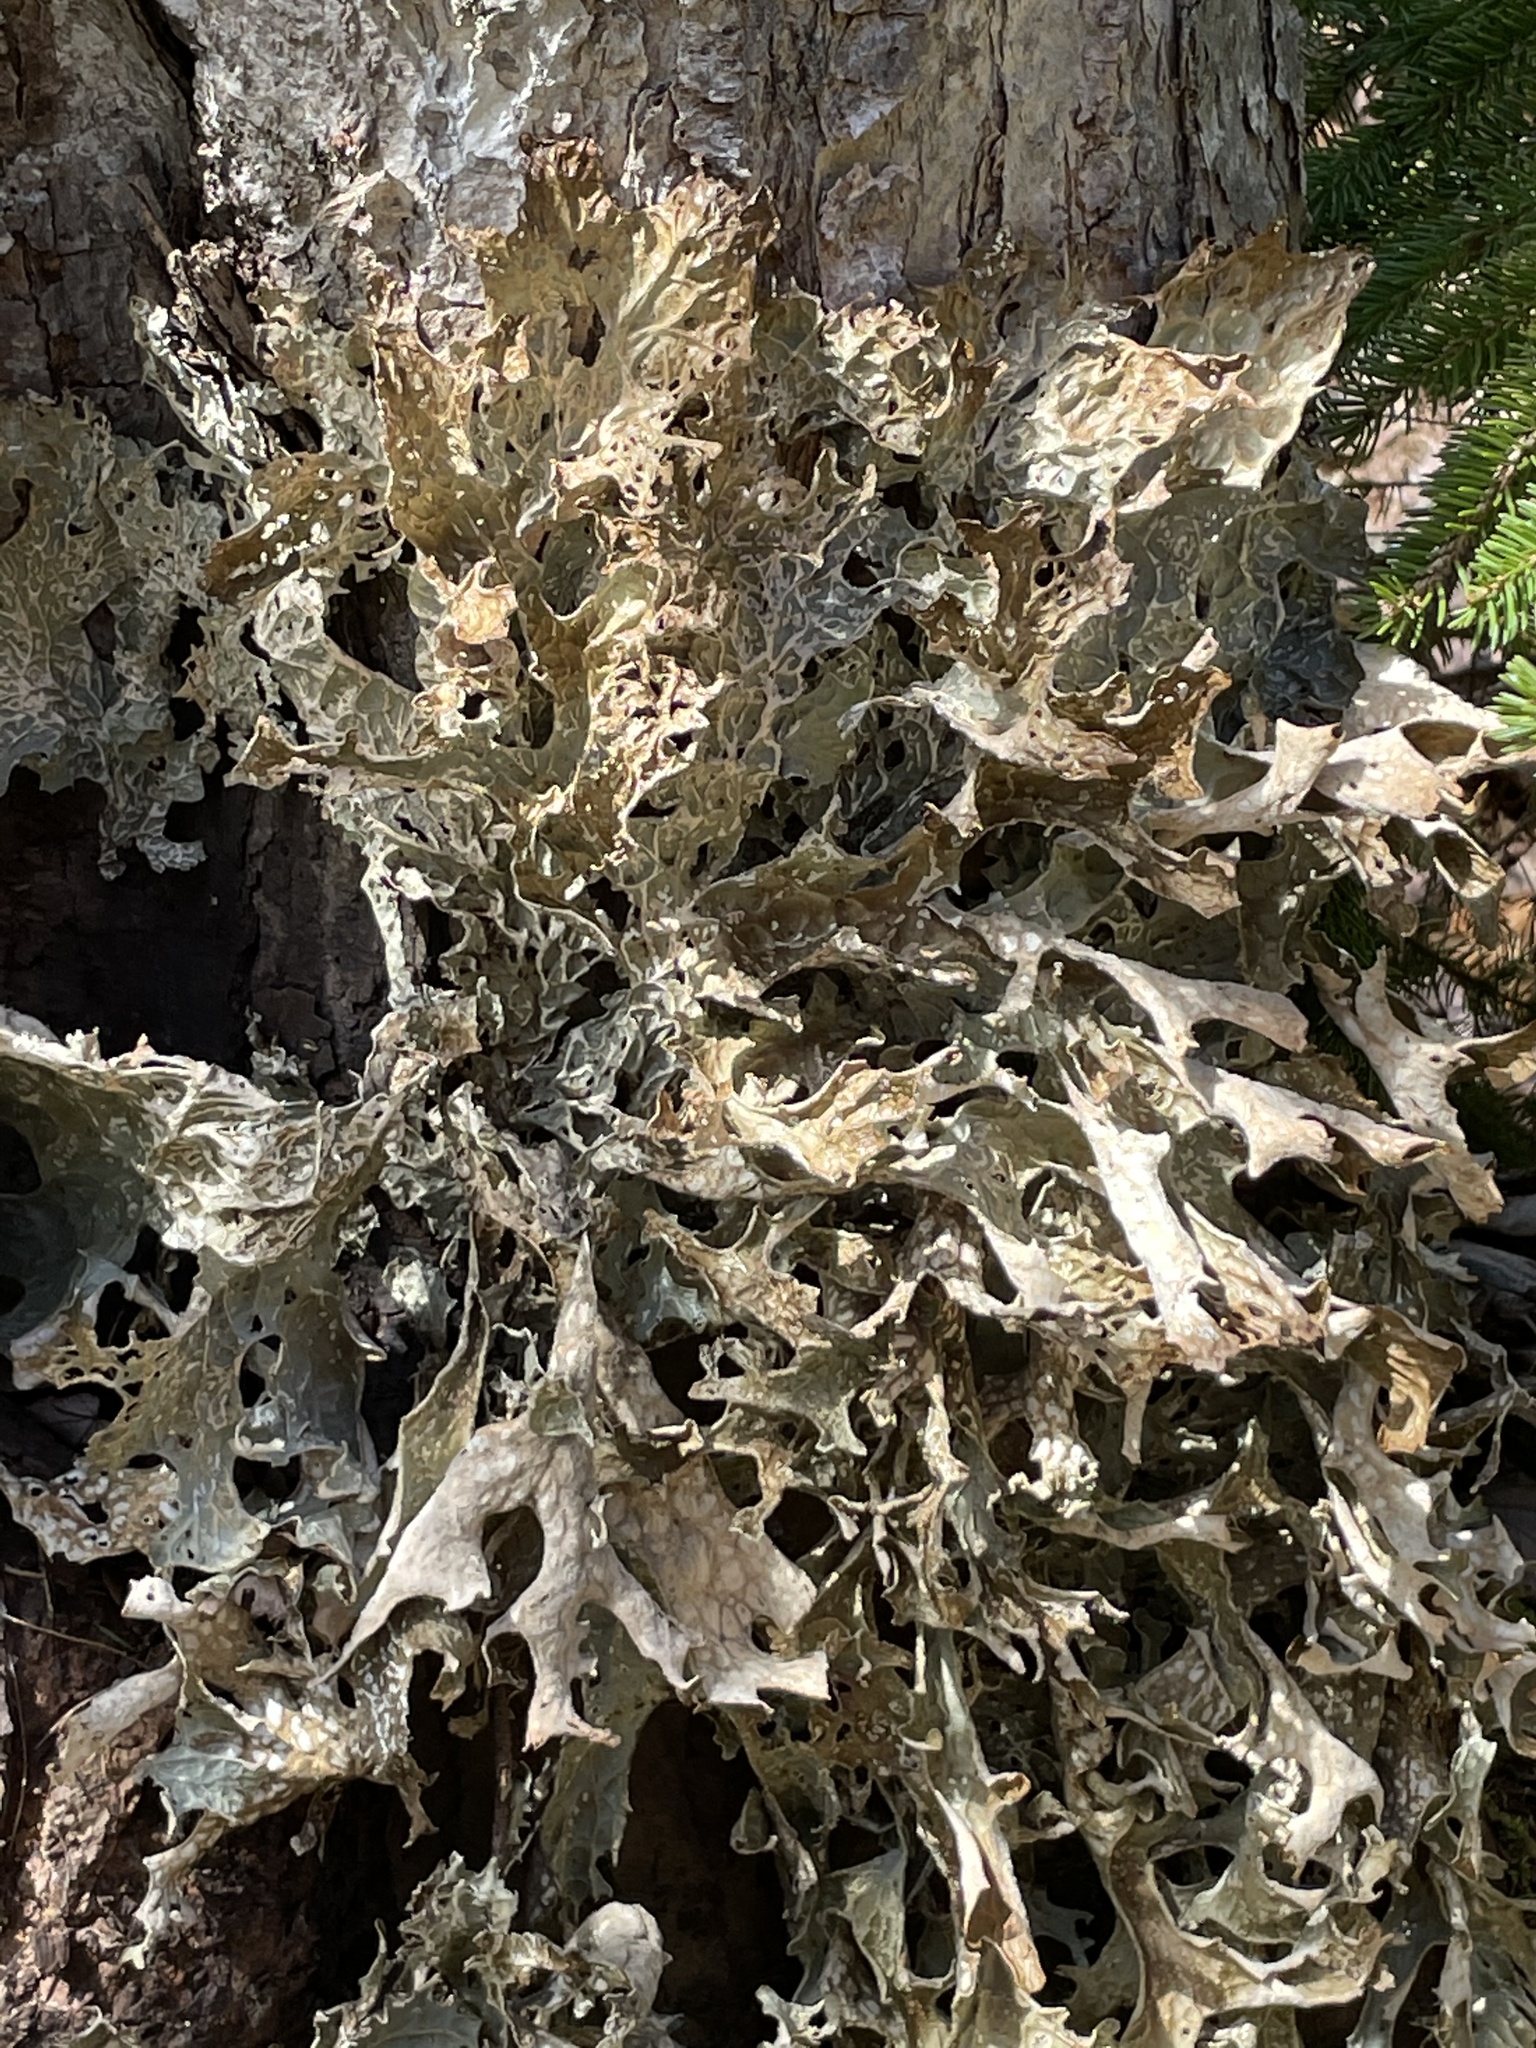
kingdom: Fungi
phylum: Ascomycota
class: Lecanoromycetes
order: Peltigerales
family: Lobariaceae
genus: Lobaria
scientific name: Lobaria pulmonaria
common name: Lungwort
